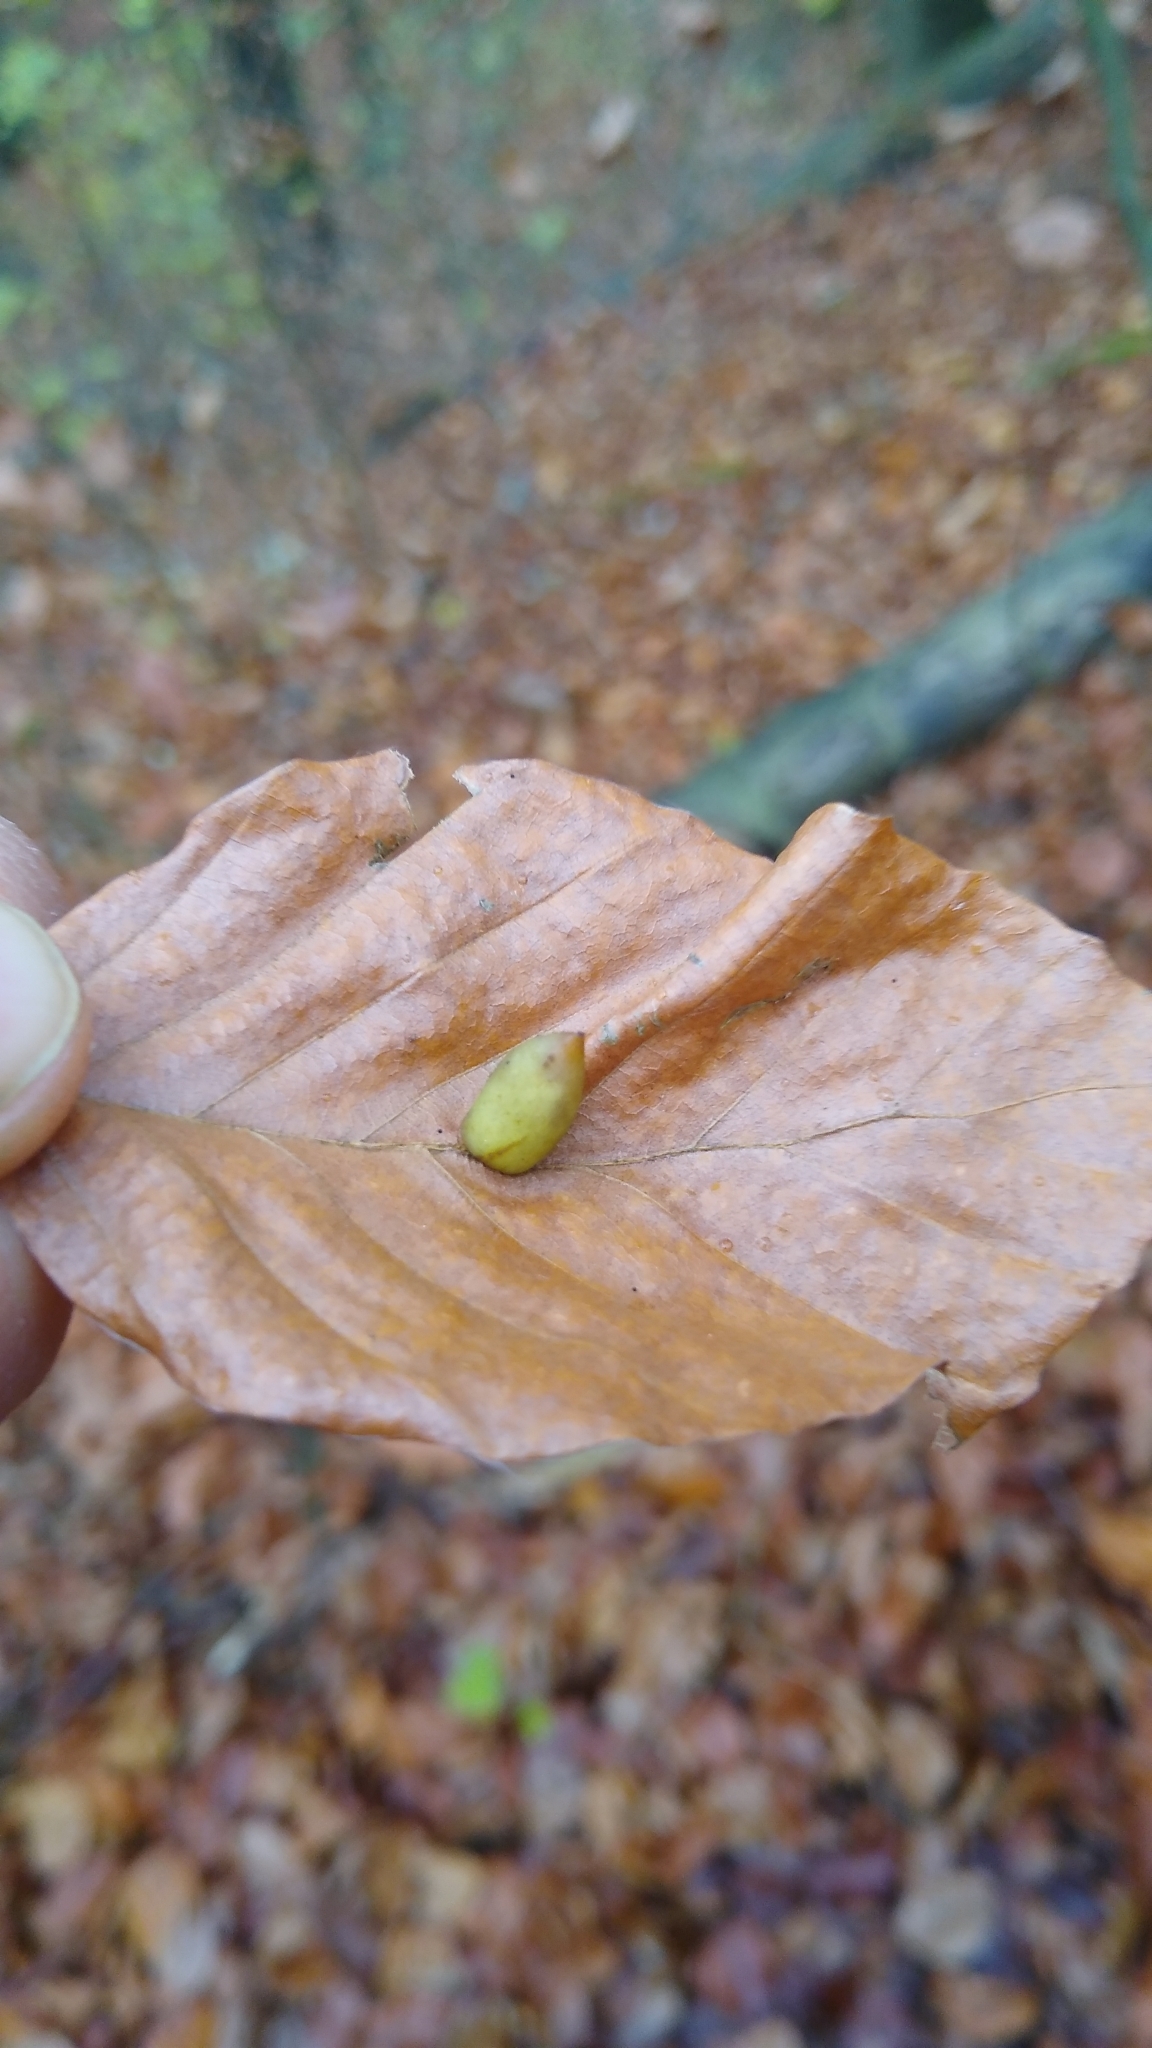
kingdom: Animalia
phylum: Arthropoda
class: Insecta
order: Diptera
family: Cecidomyiidae
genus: Mikiola
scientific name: Mikiola fagi
